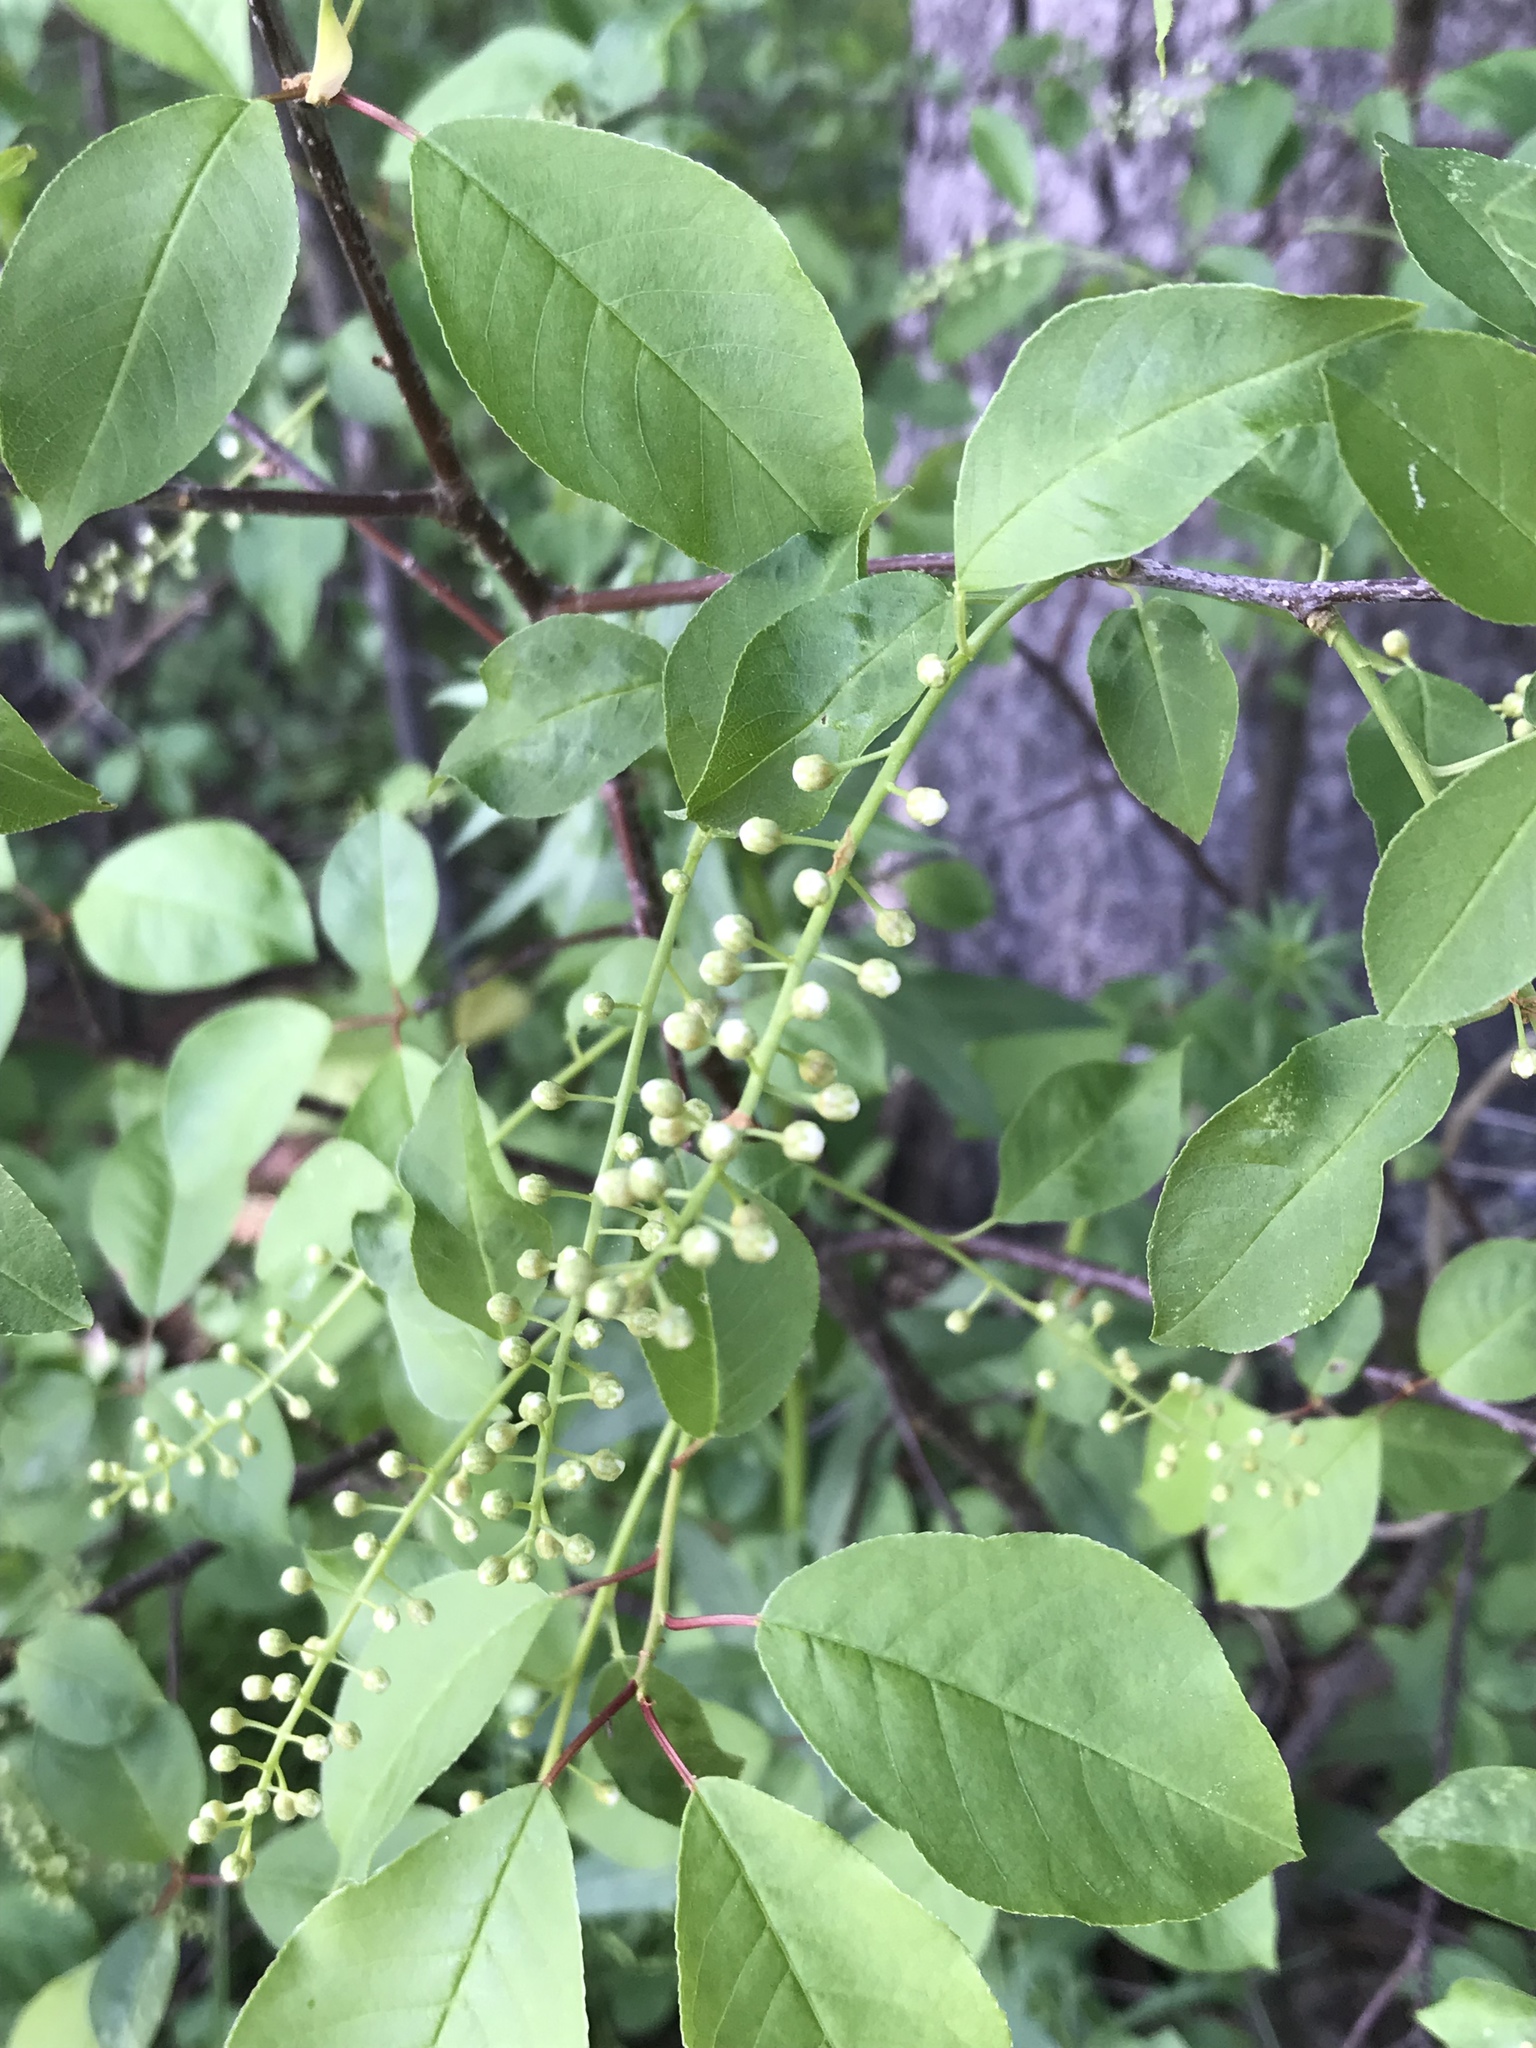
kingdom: Plantae
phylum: Tracheophyta
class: Magnoliopsida
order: Rosales
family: Rosaceae
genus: Prunus
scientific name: Prunus virginiana
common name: Chokecherry
